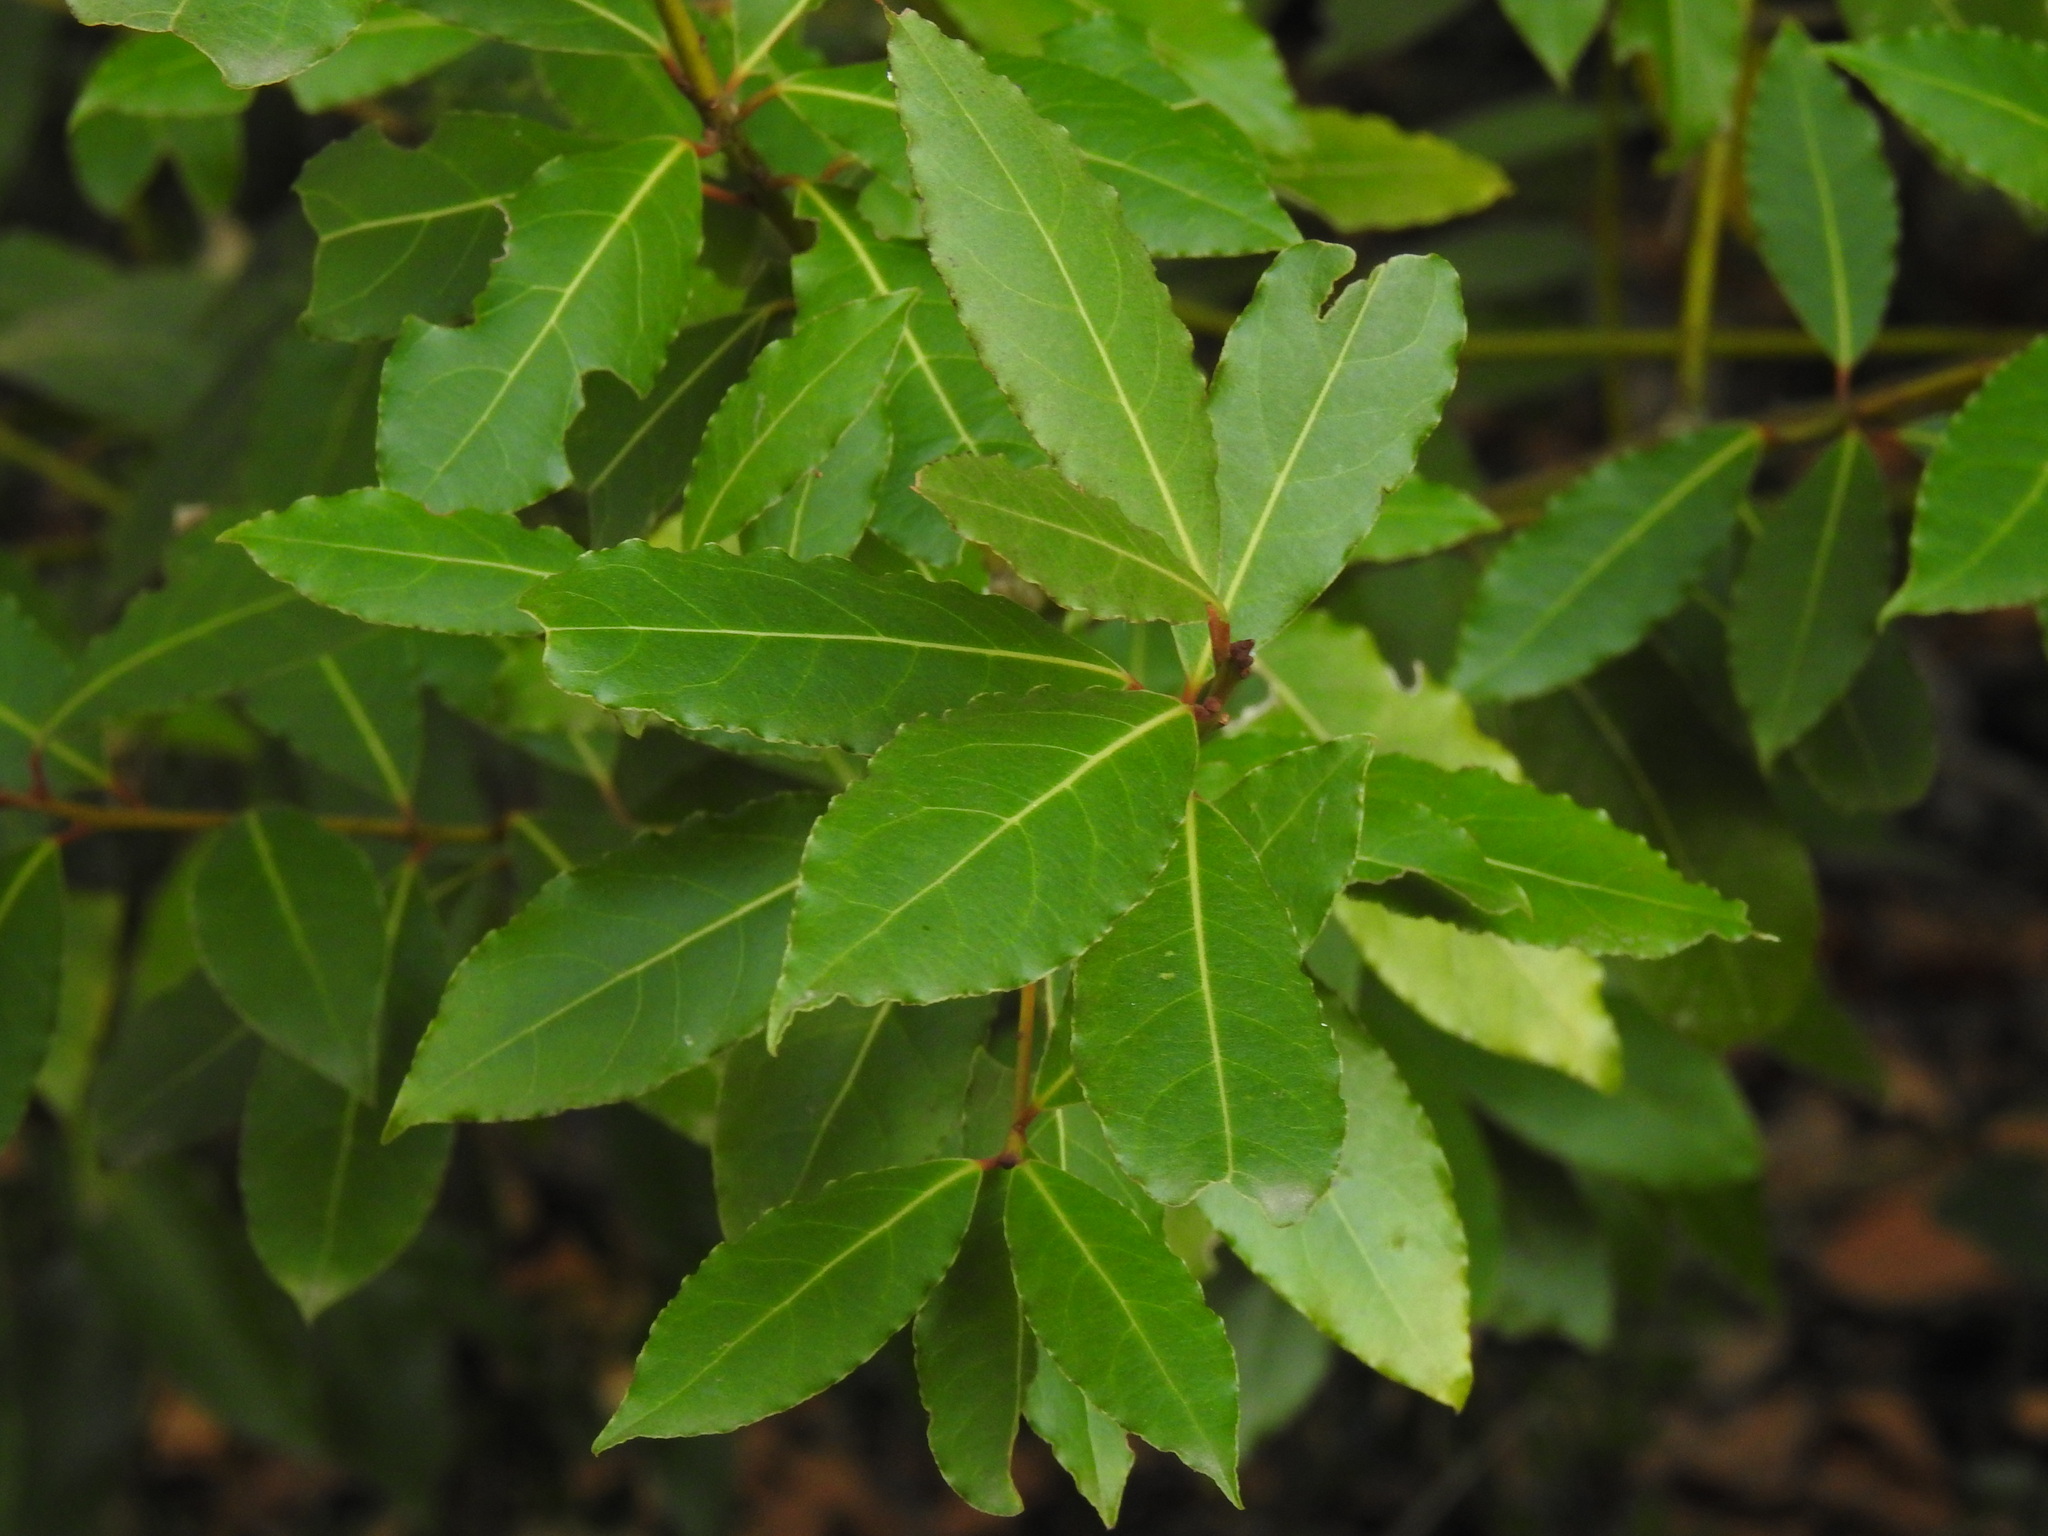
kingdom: Plantae
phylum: Tracheophyta
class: Magnoliopsida
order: Laurales
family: Lauraceae
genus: Laurus
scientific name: Laurus nobilis
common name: Bay
